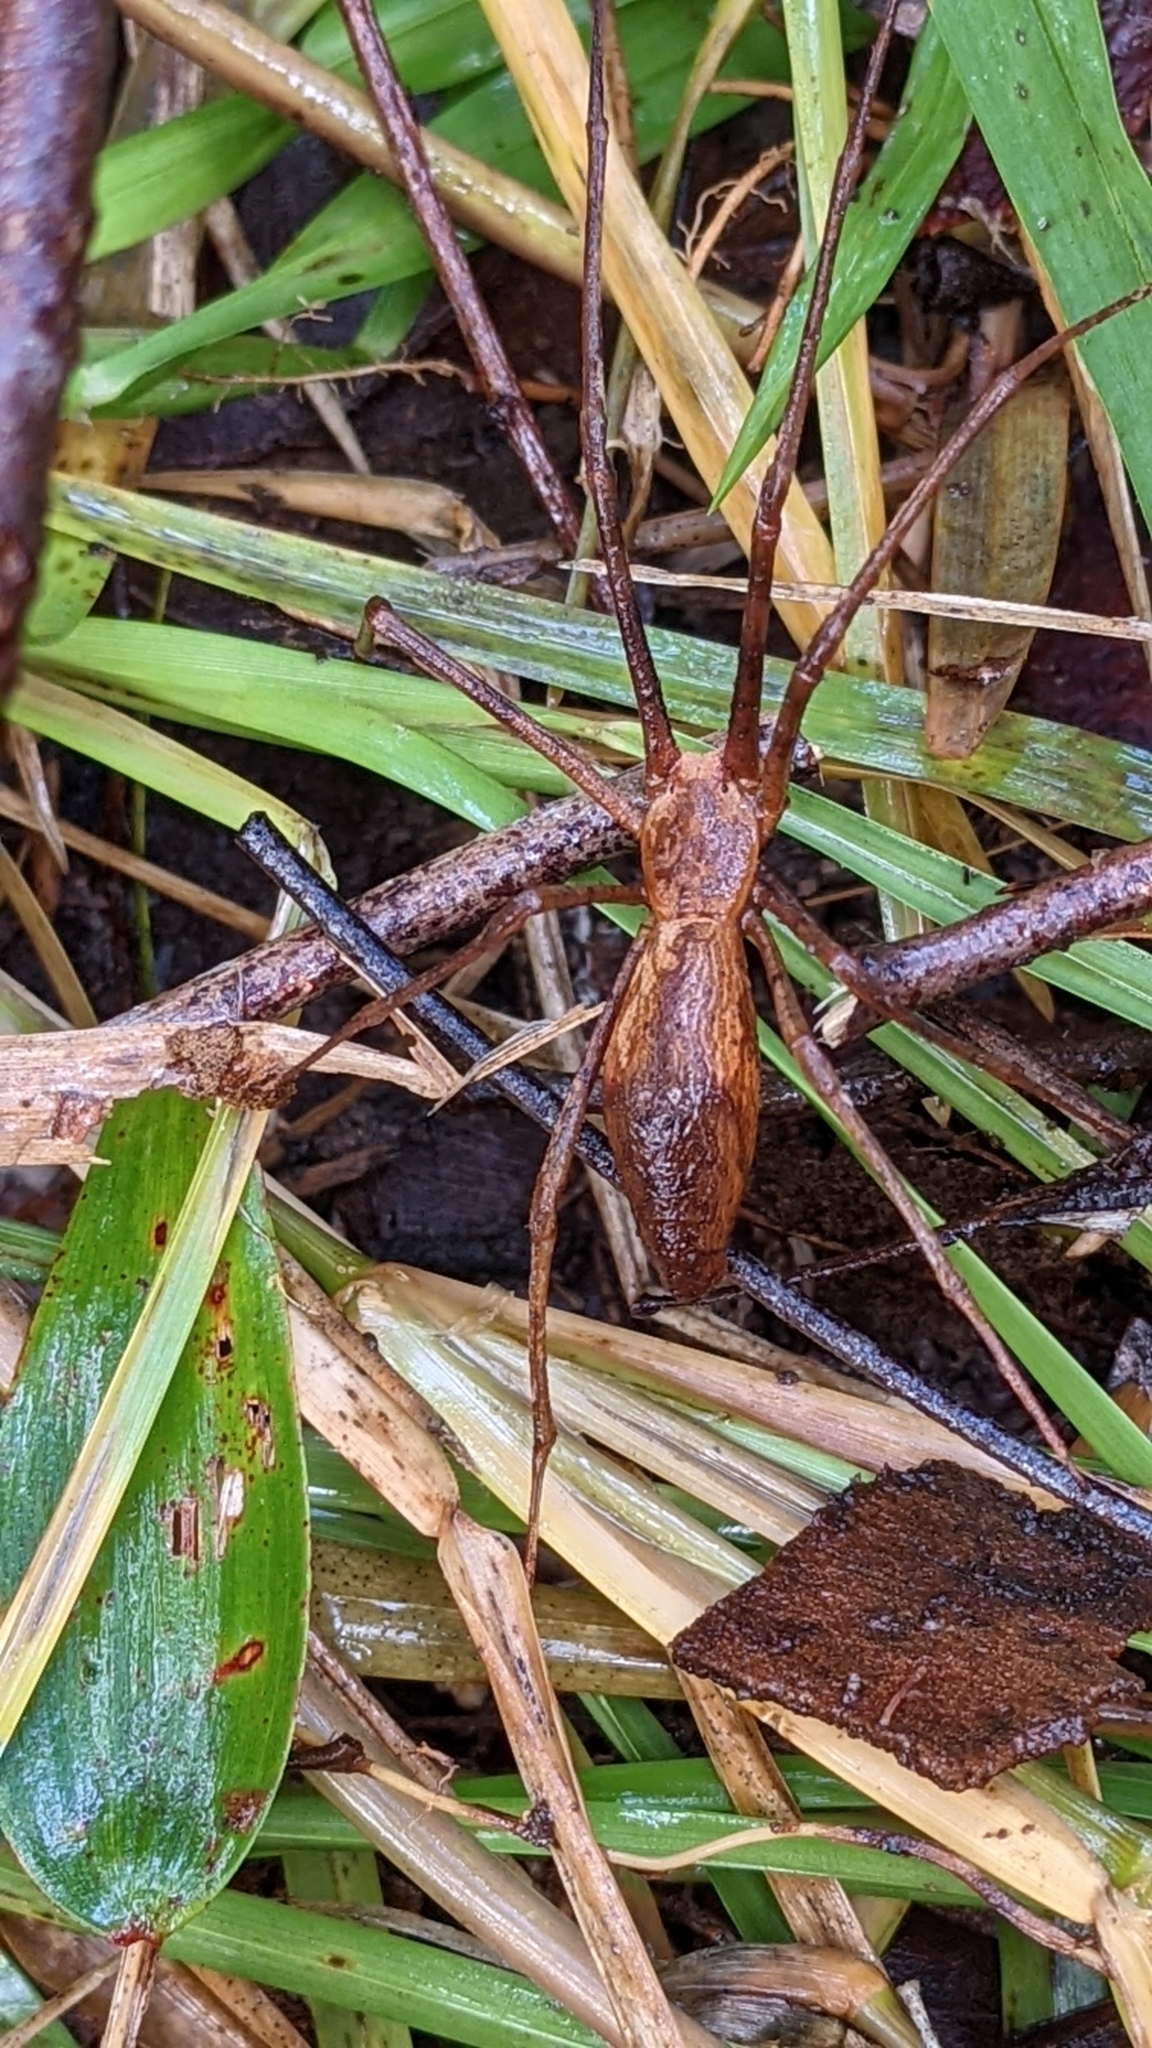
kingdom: Animalia
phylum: Arthropoda
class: Arachnida
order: Araneae
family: Deinopidae
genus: Deinopis
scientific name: Deinopis subrufa
